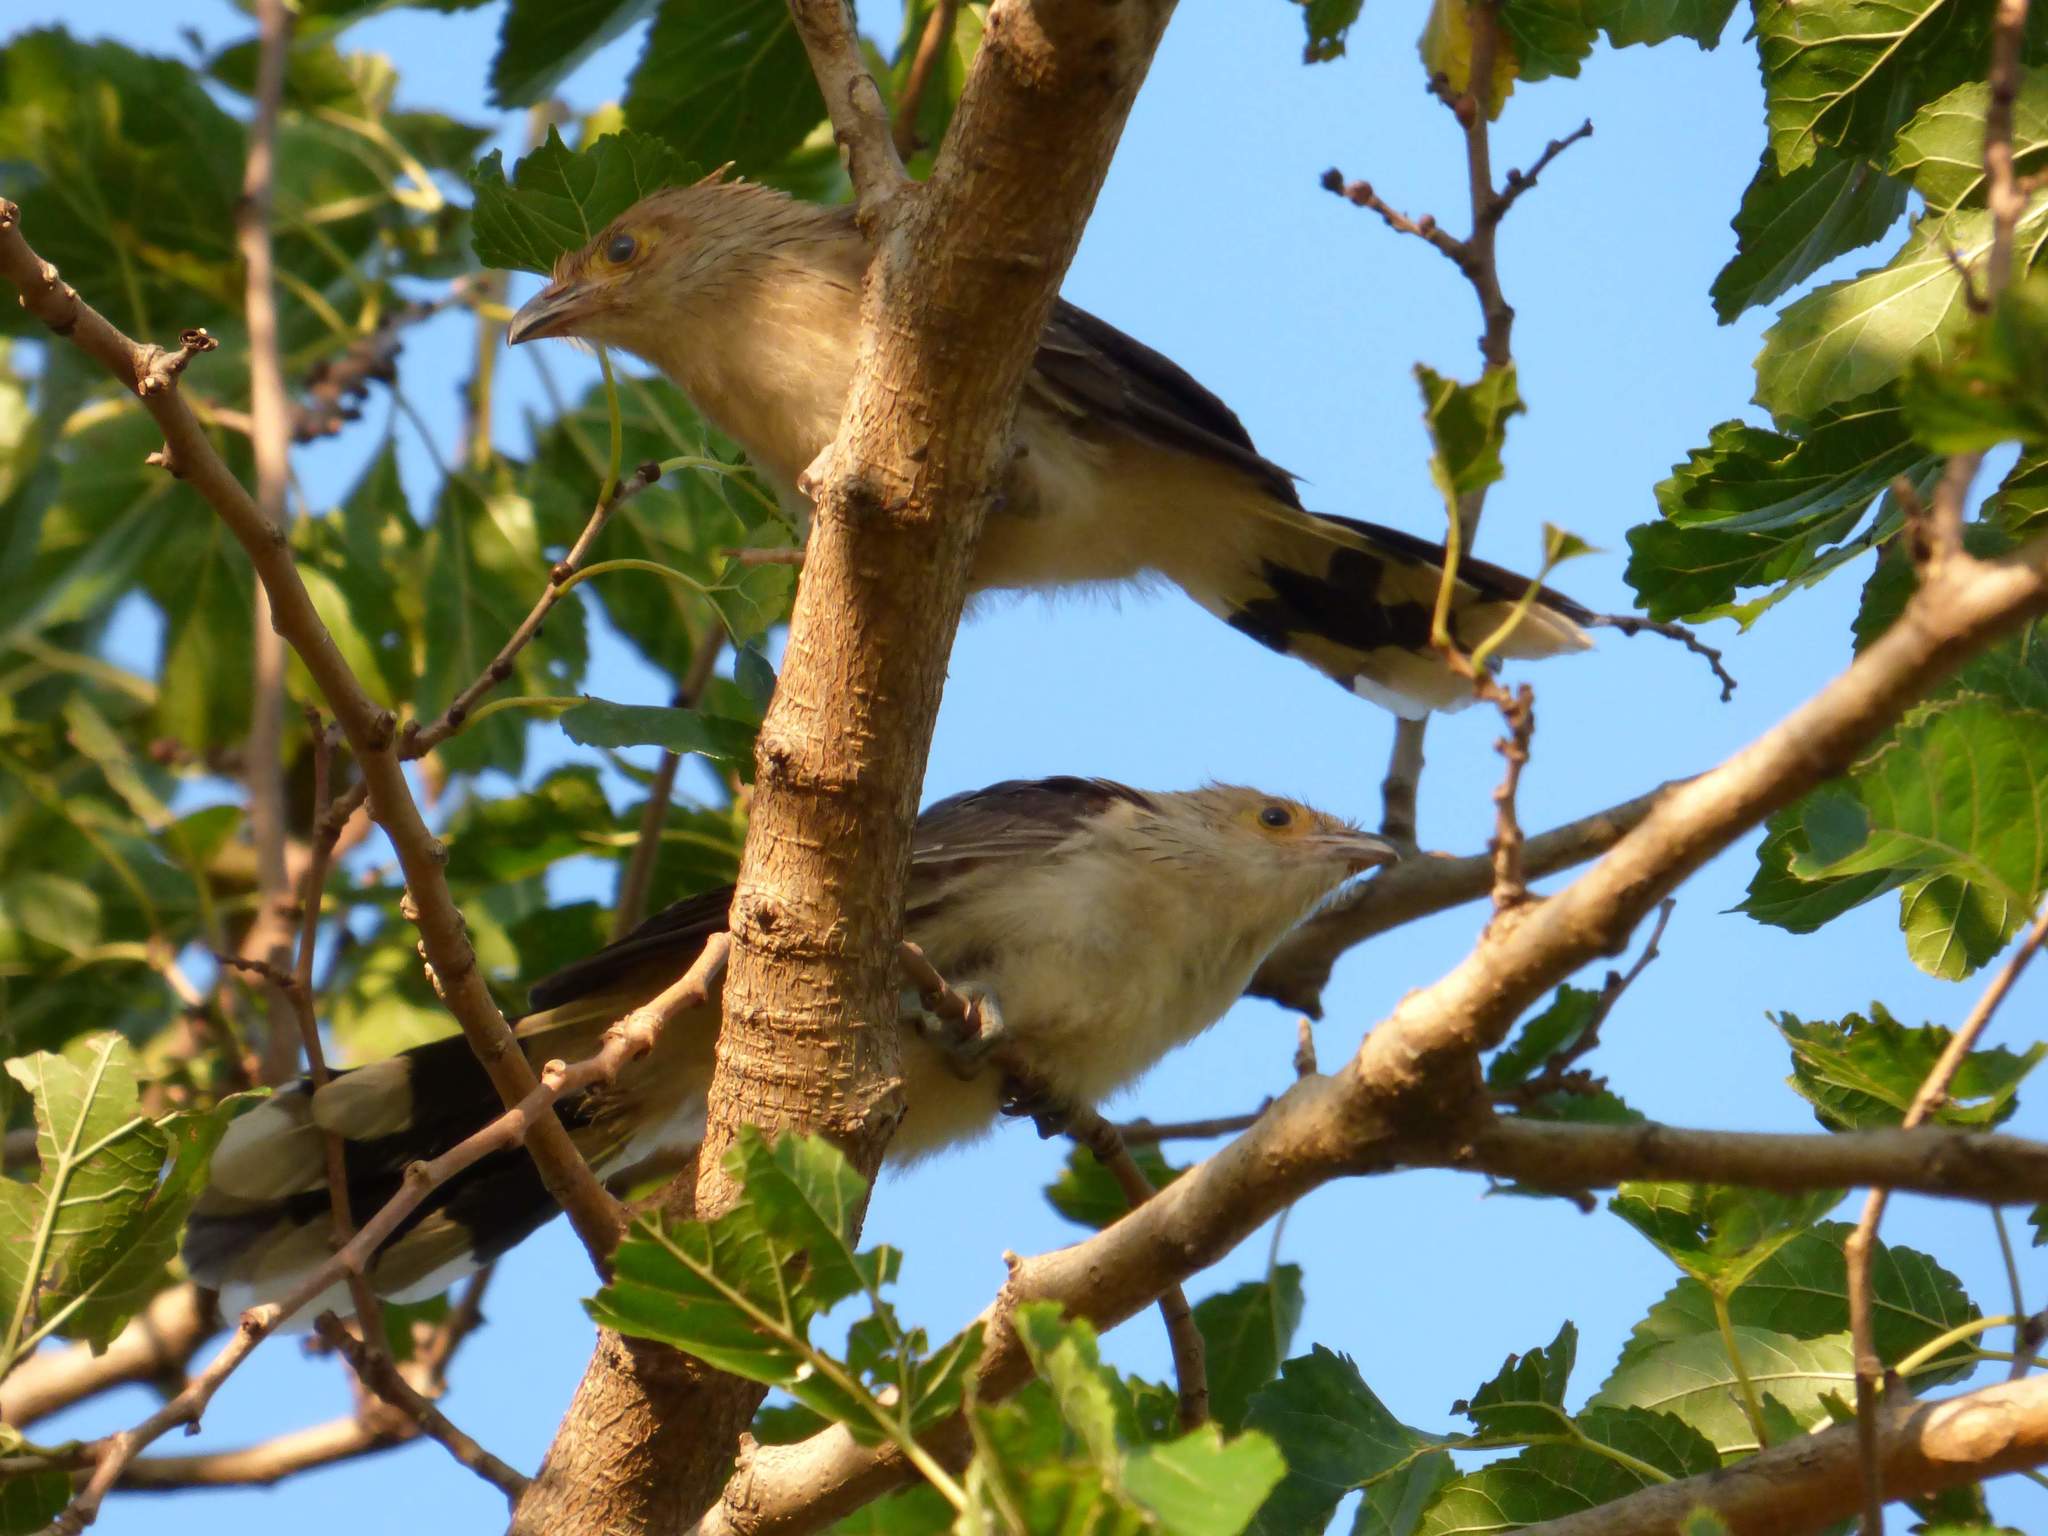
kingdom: Animalia
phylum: Chordata
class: Aves
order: Cuculiformes
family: Cuculidae
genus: Guira
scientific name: Guira guira
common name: Guira cuckoo
